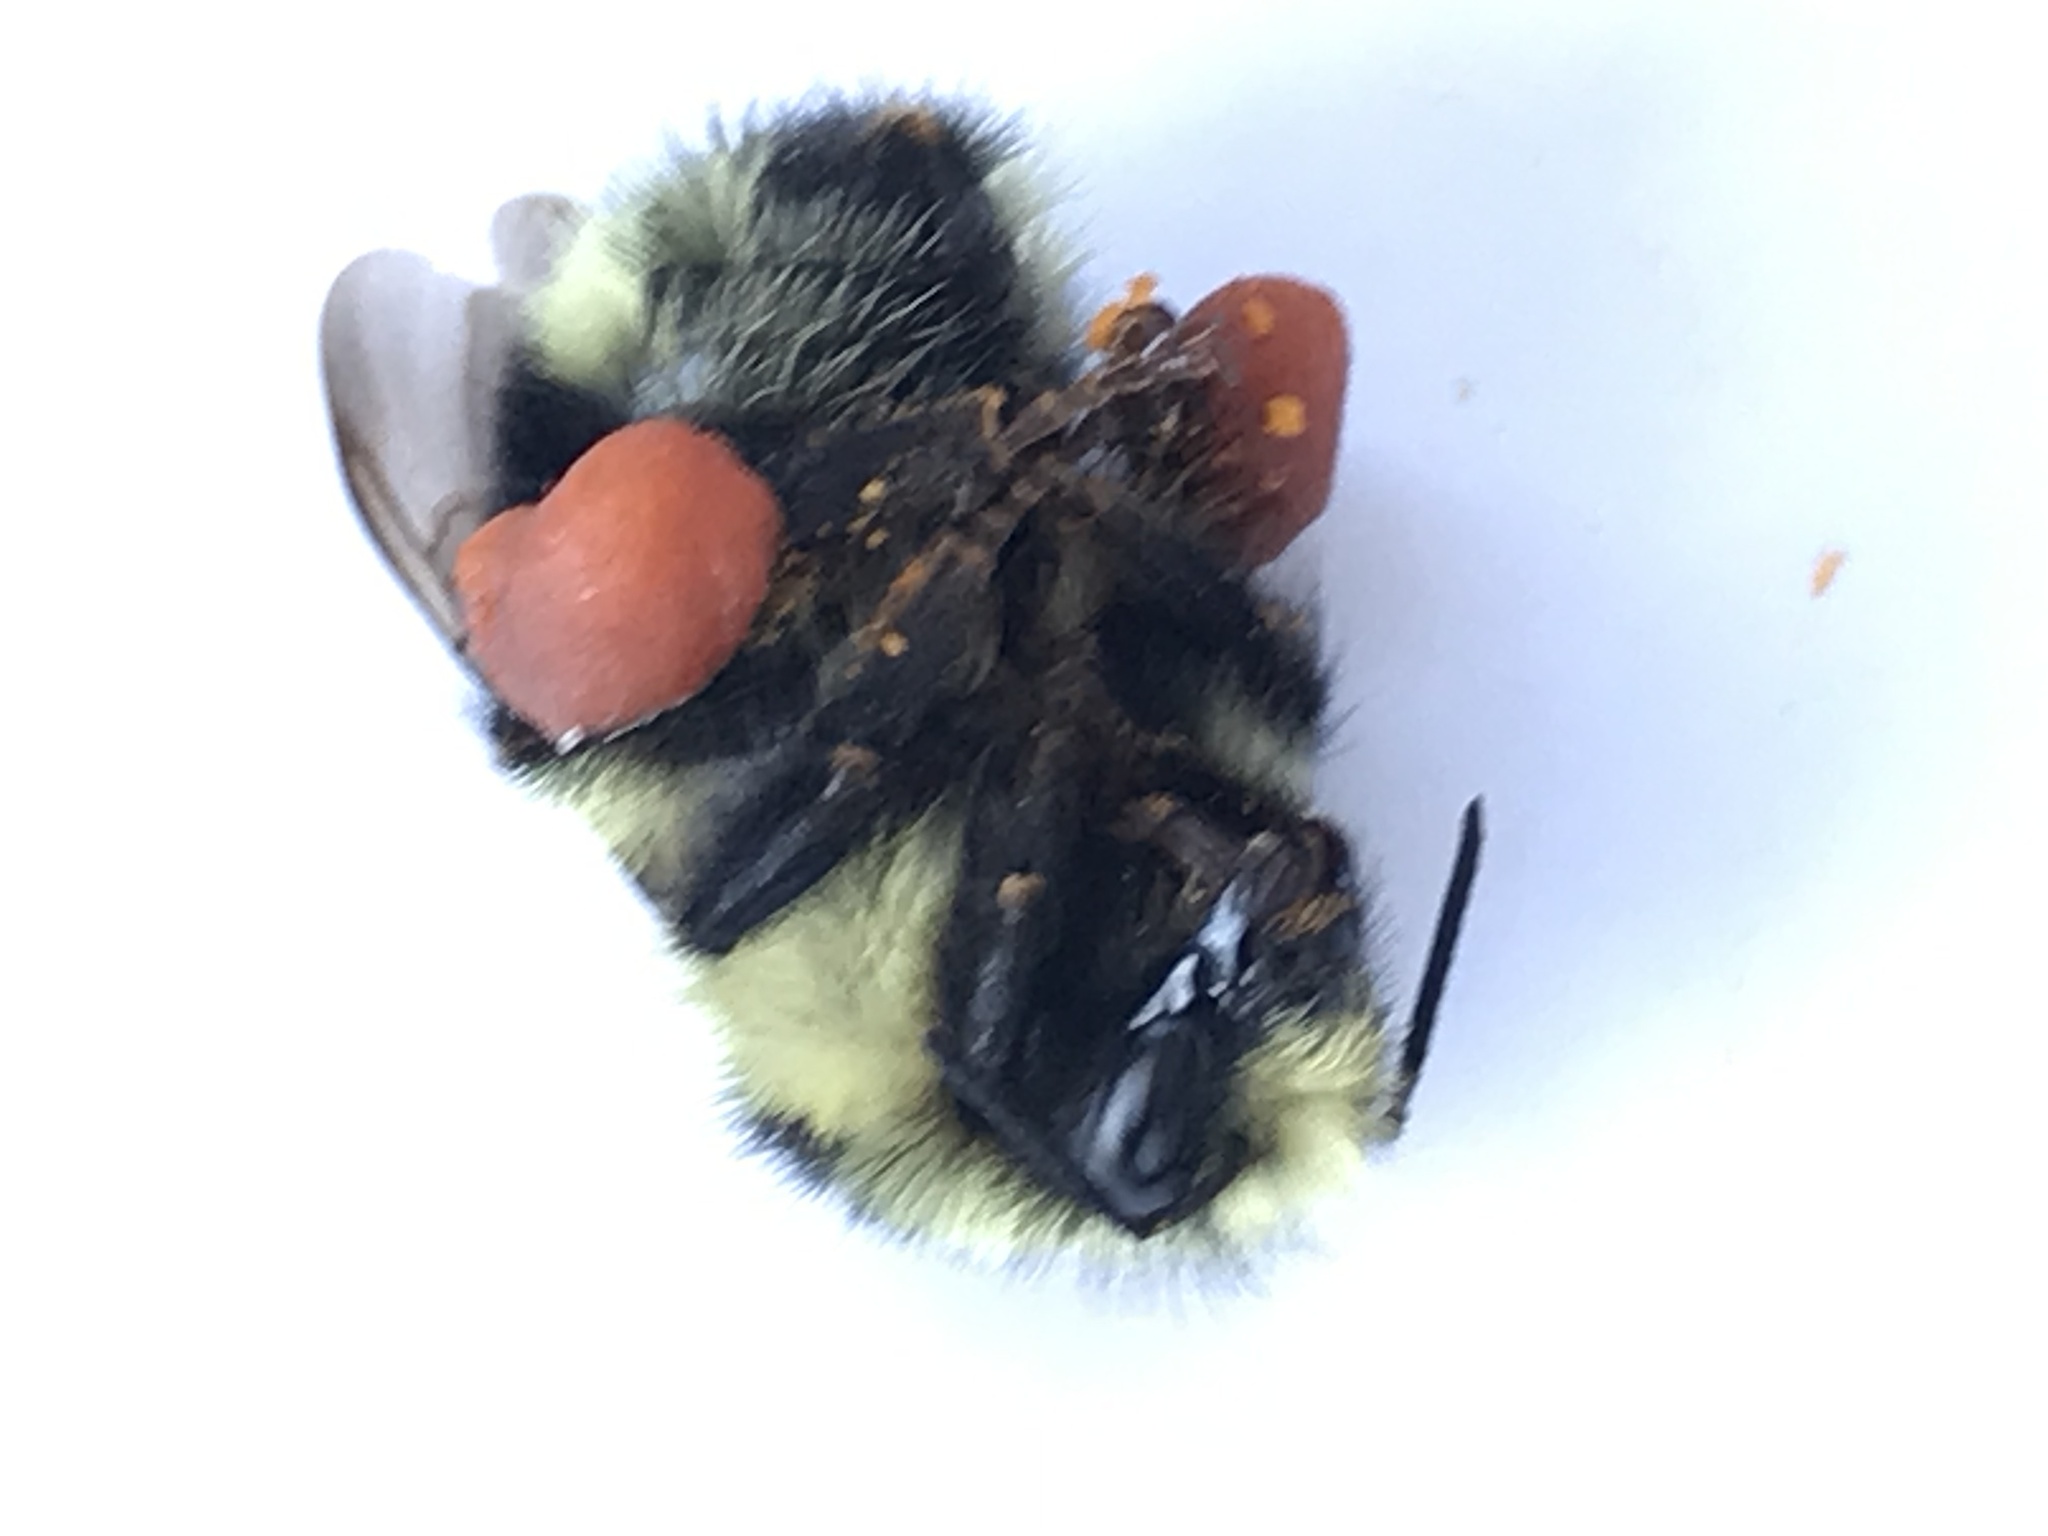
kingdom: Animalia
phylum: Arthropoda
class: Insecta
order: Hymenoptera
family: Apidae
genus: Bombus
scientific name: Bombus melanopygus
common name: Black tail bumble bee
